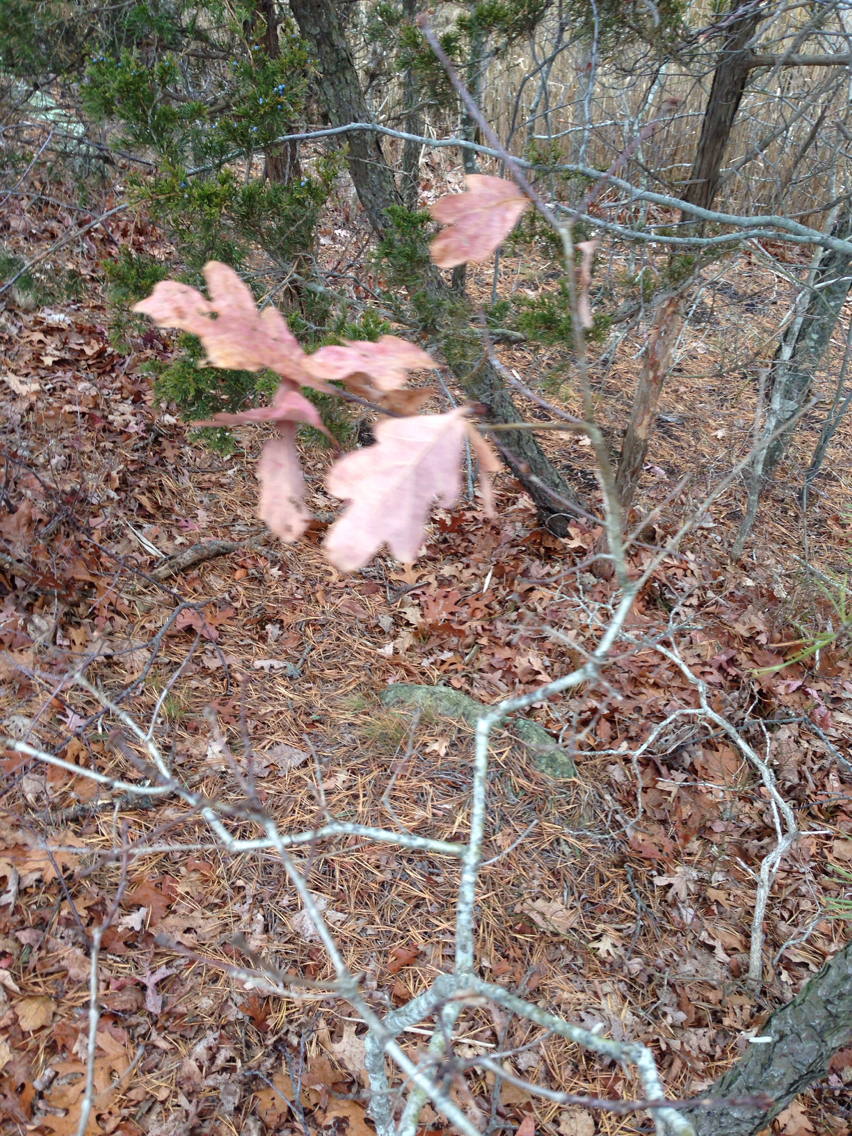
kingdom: Plantae
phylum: Tracheophyta
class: Magnoliopsida
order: Fagales
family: Fagaceae
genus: Quercus
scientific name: Quercus alba
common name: White oak
